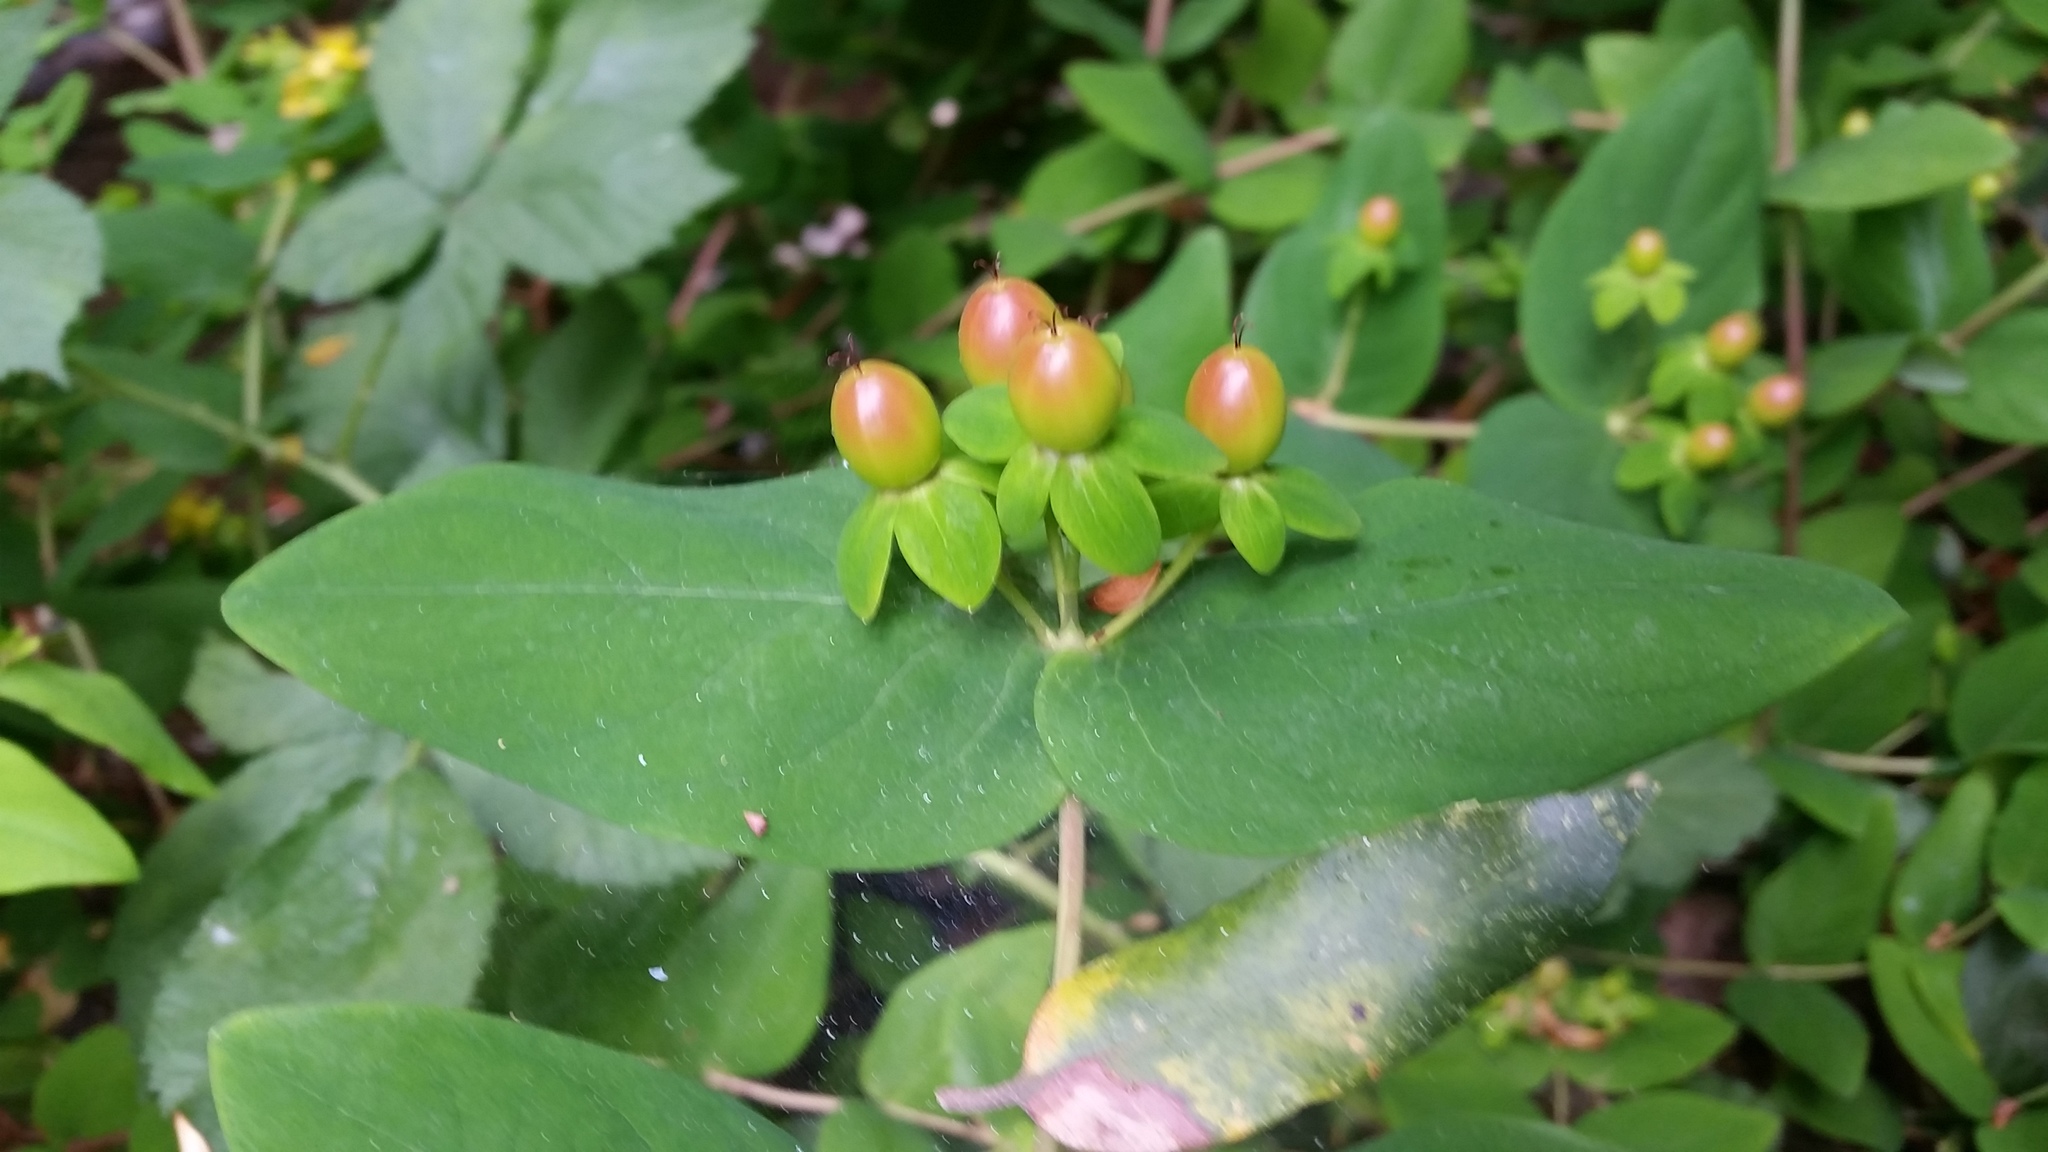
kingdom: Plantae
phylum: Tracheophyta
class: Magnoliopsida
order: Malpighiales
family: Hypericaceae
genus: Hypericum
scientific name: Hypericum calycinum
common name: Rose-of-sharon
